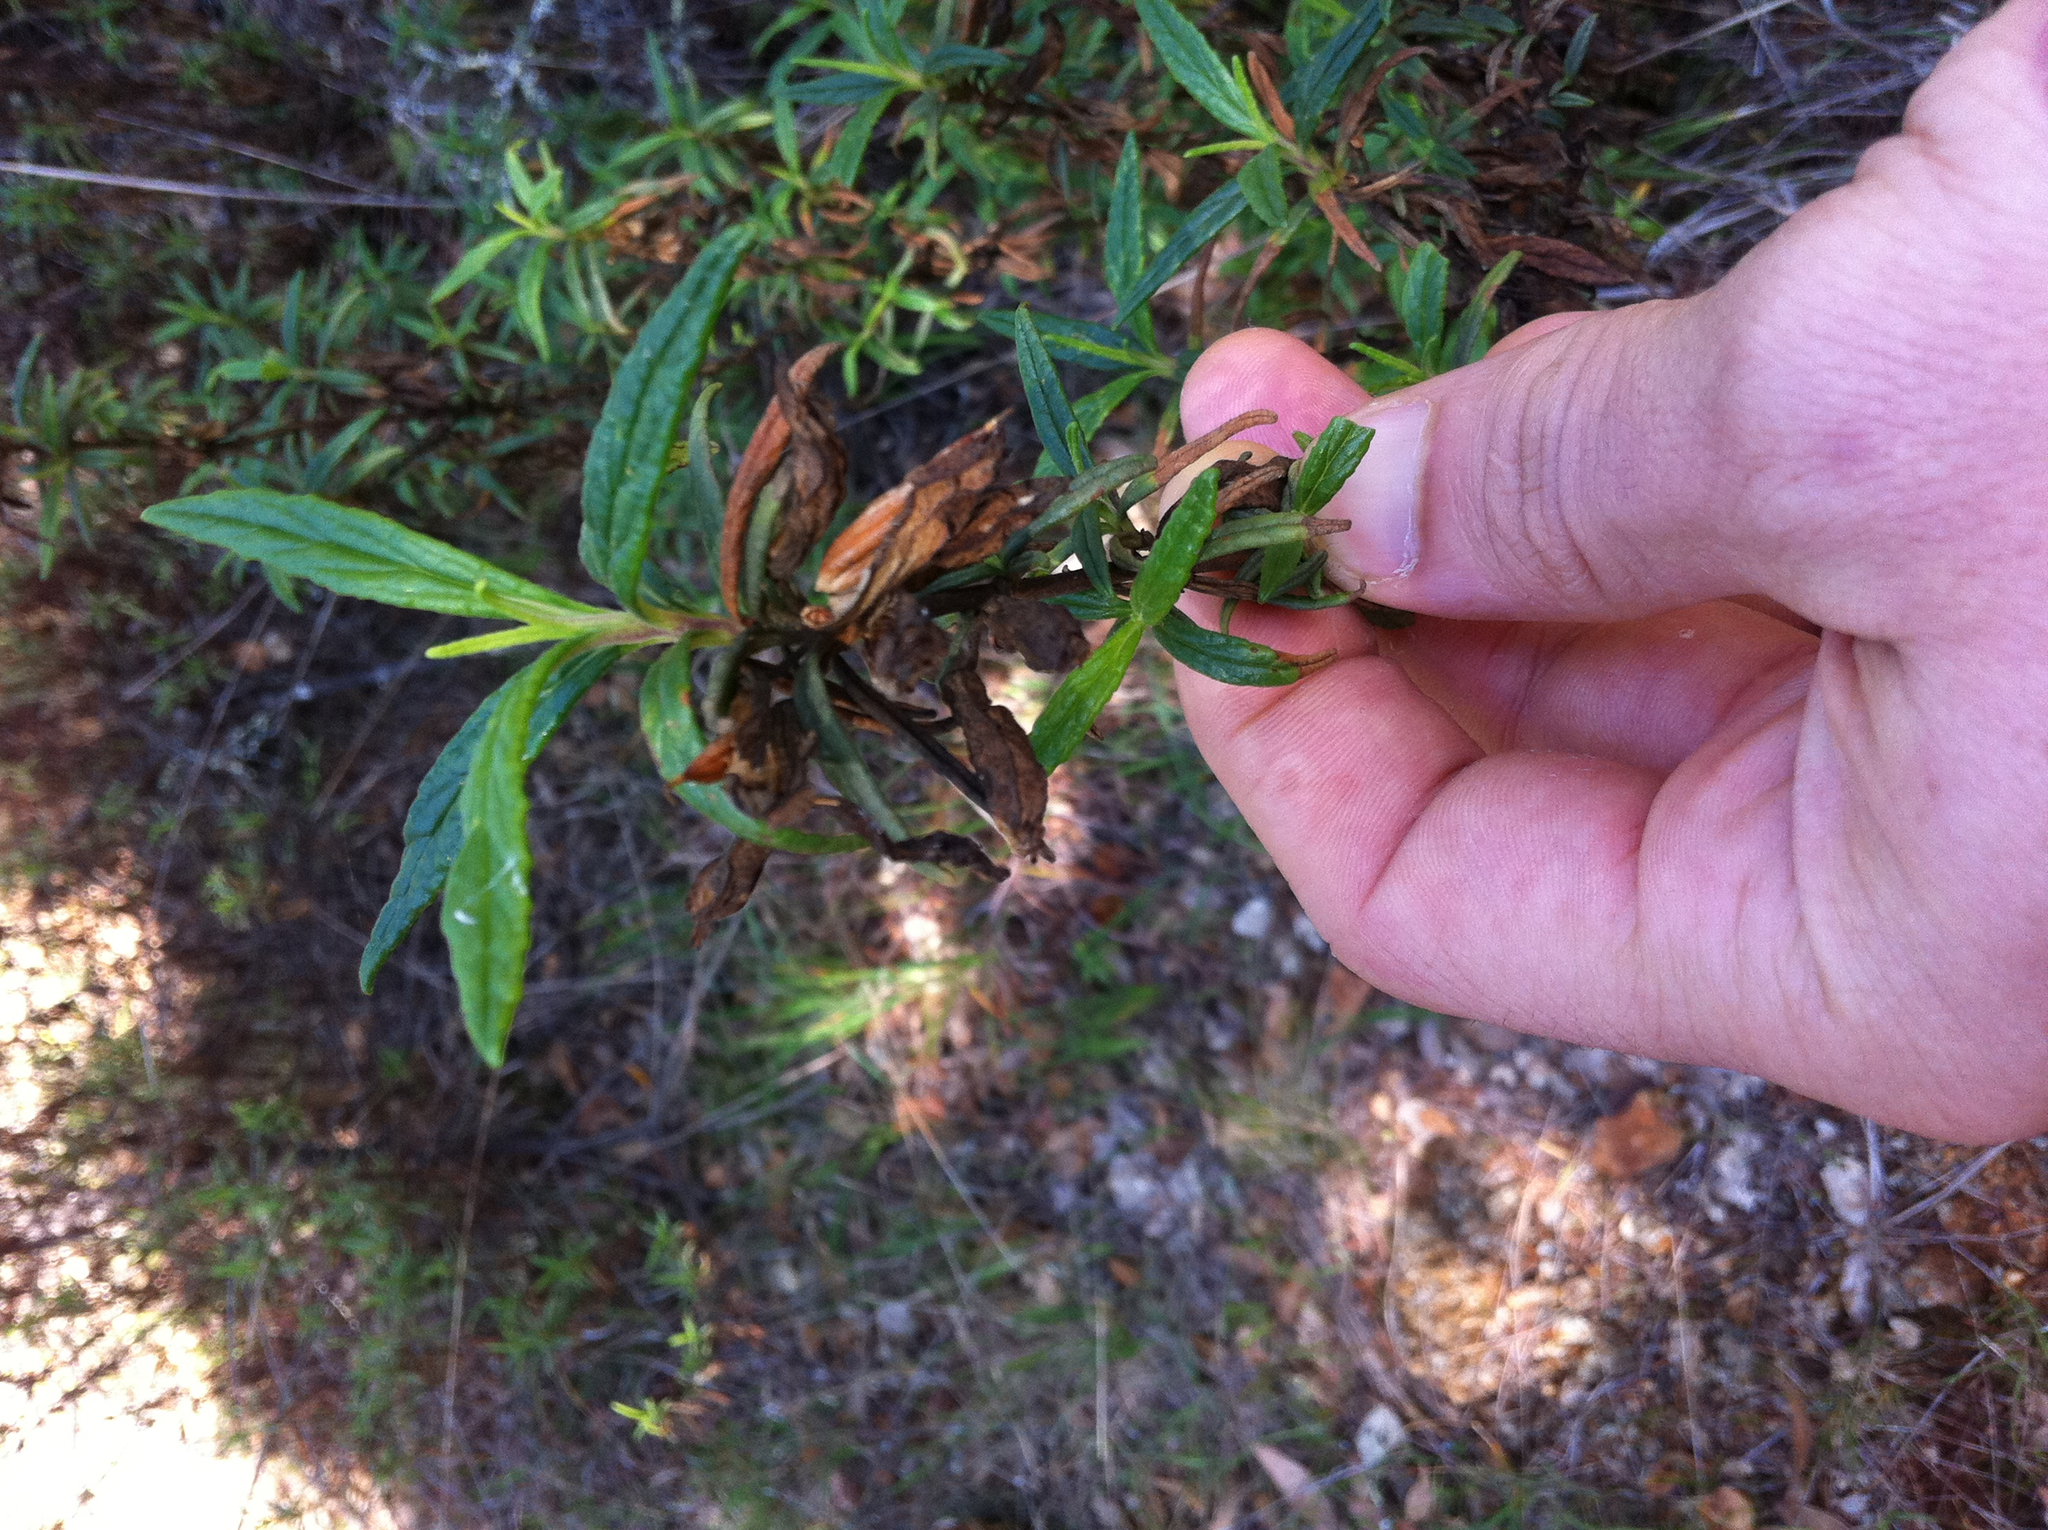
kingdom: Plantae
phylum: Tracheophyta
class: Magnoliopsida
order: Lamiales
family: Phrymaceae
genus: Diplacus
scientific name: Diplacus aurantiacus
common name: Bush monkey-flower
